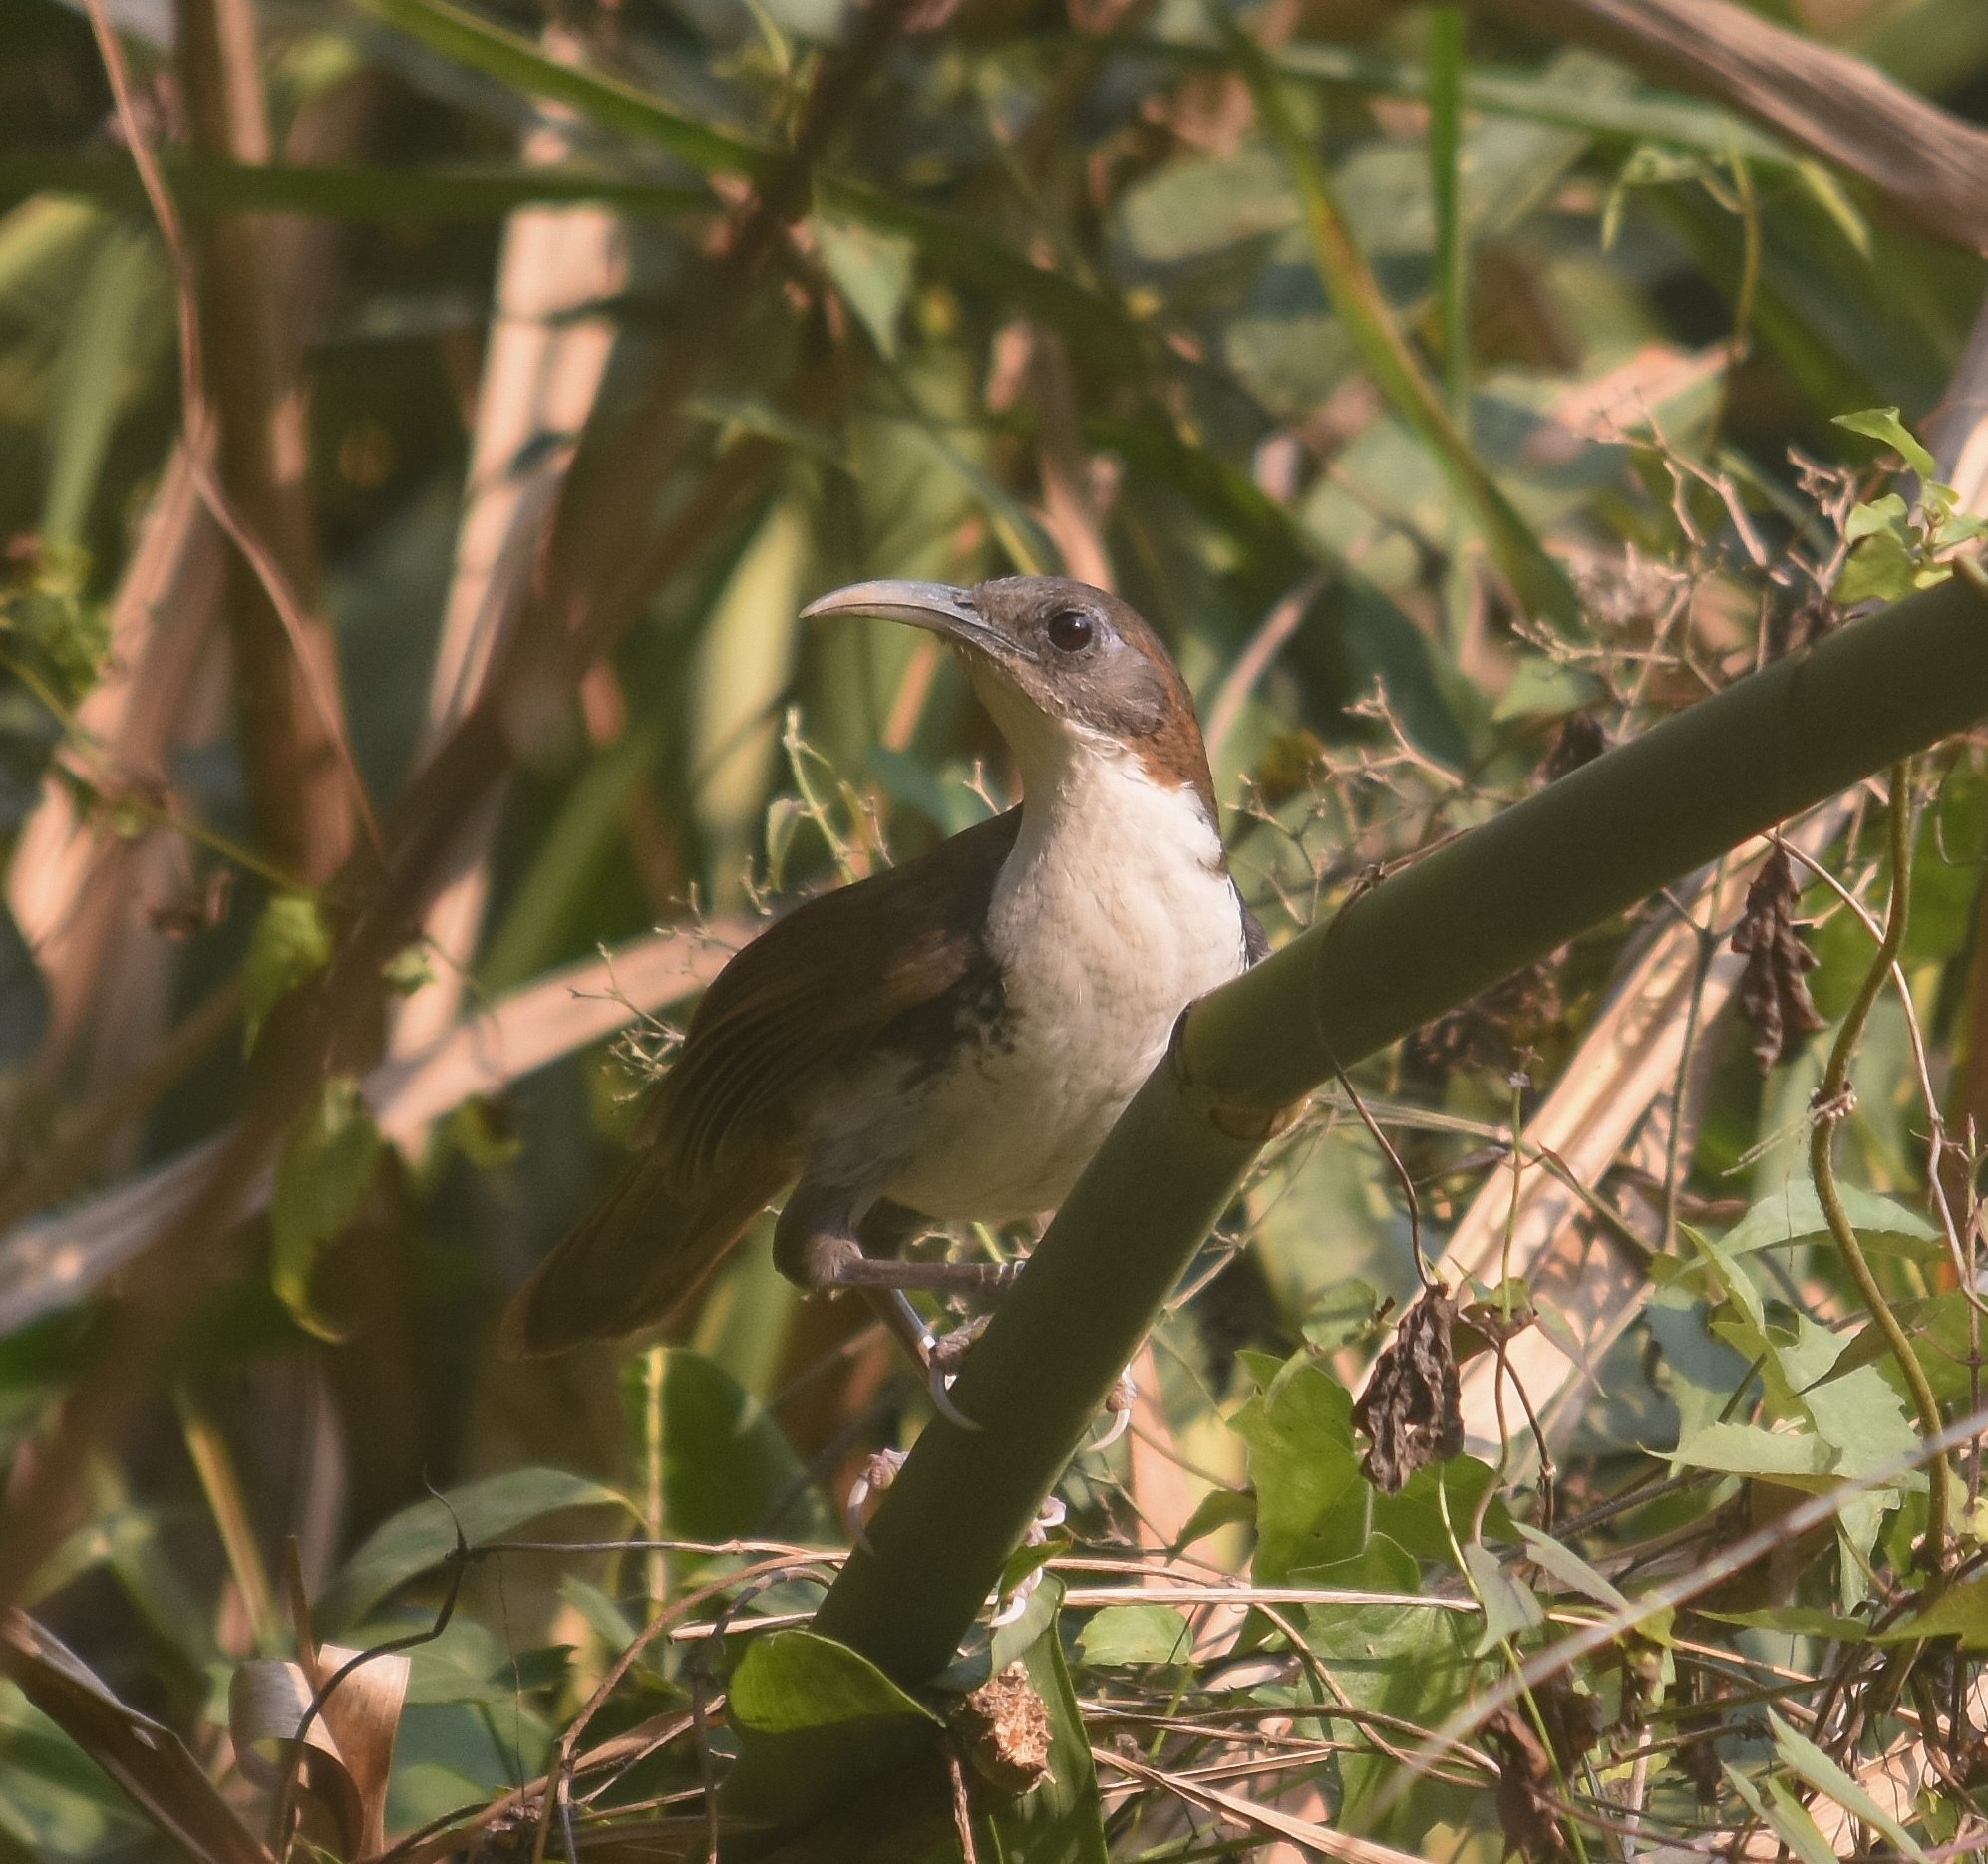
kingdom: Animalia
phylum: Chordata
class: Aves
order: Passeriformes
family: Timaliidae
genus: Pomatorhinus
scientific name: Pomatorhinus hypoleucos
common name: Large scimitar babbler
